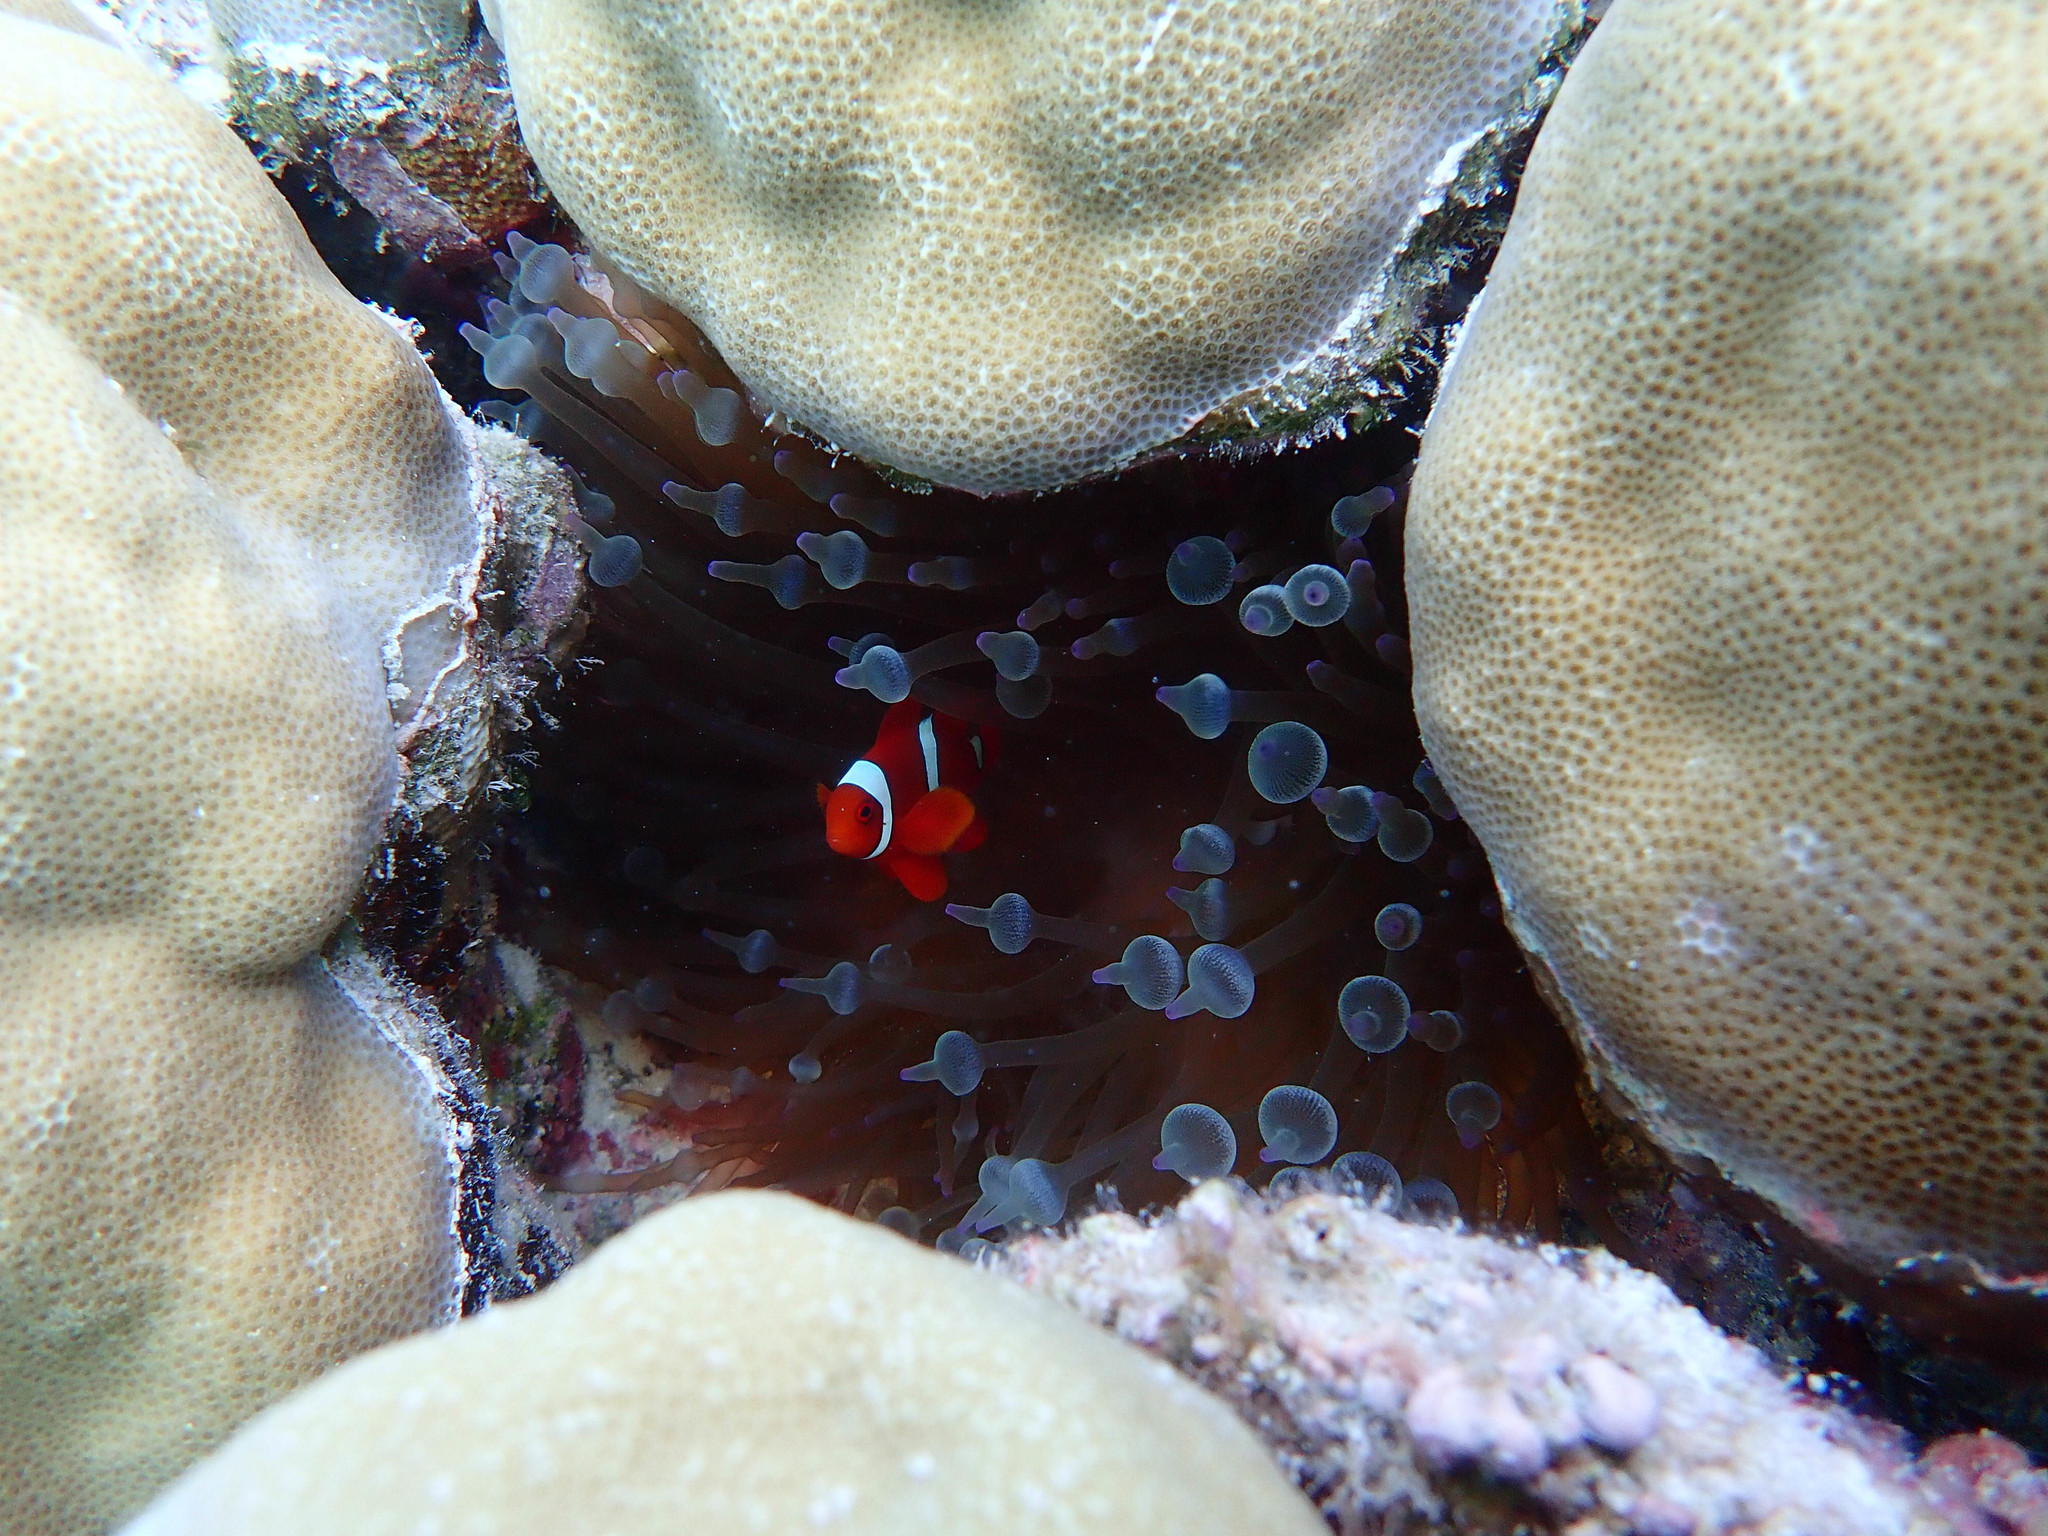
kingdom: Animalia
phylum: Chordata
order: Perciformes
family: Pomacentridae
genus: Premnas
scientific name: Premnas biaculeatus
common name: Spinecheek anemonefish
